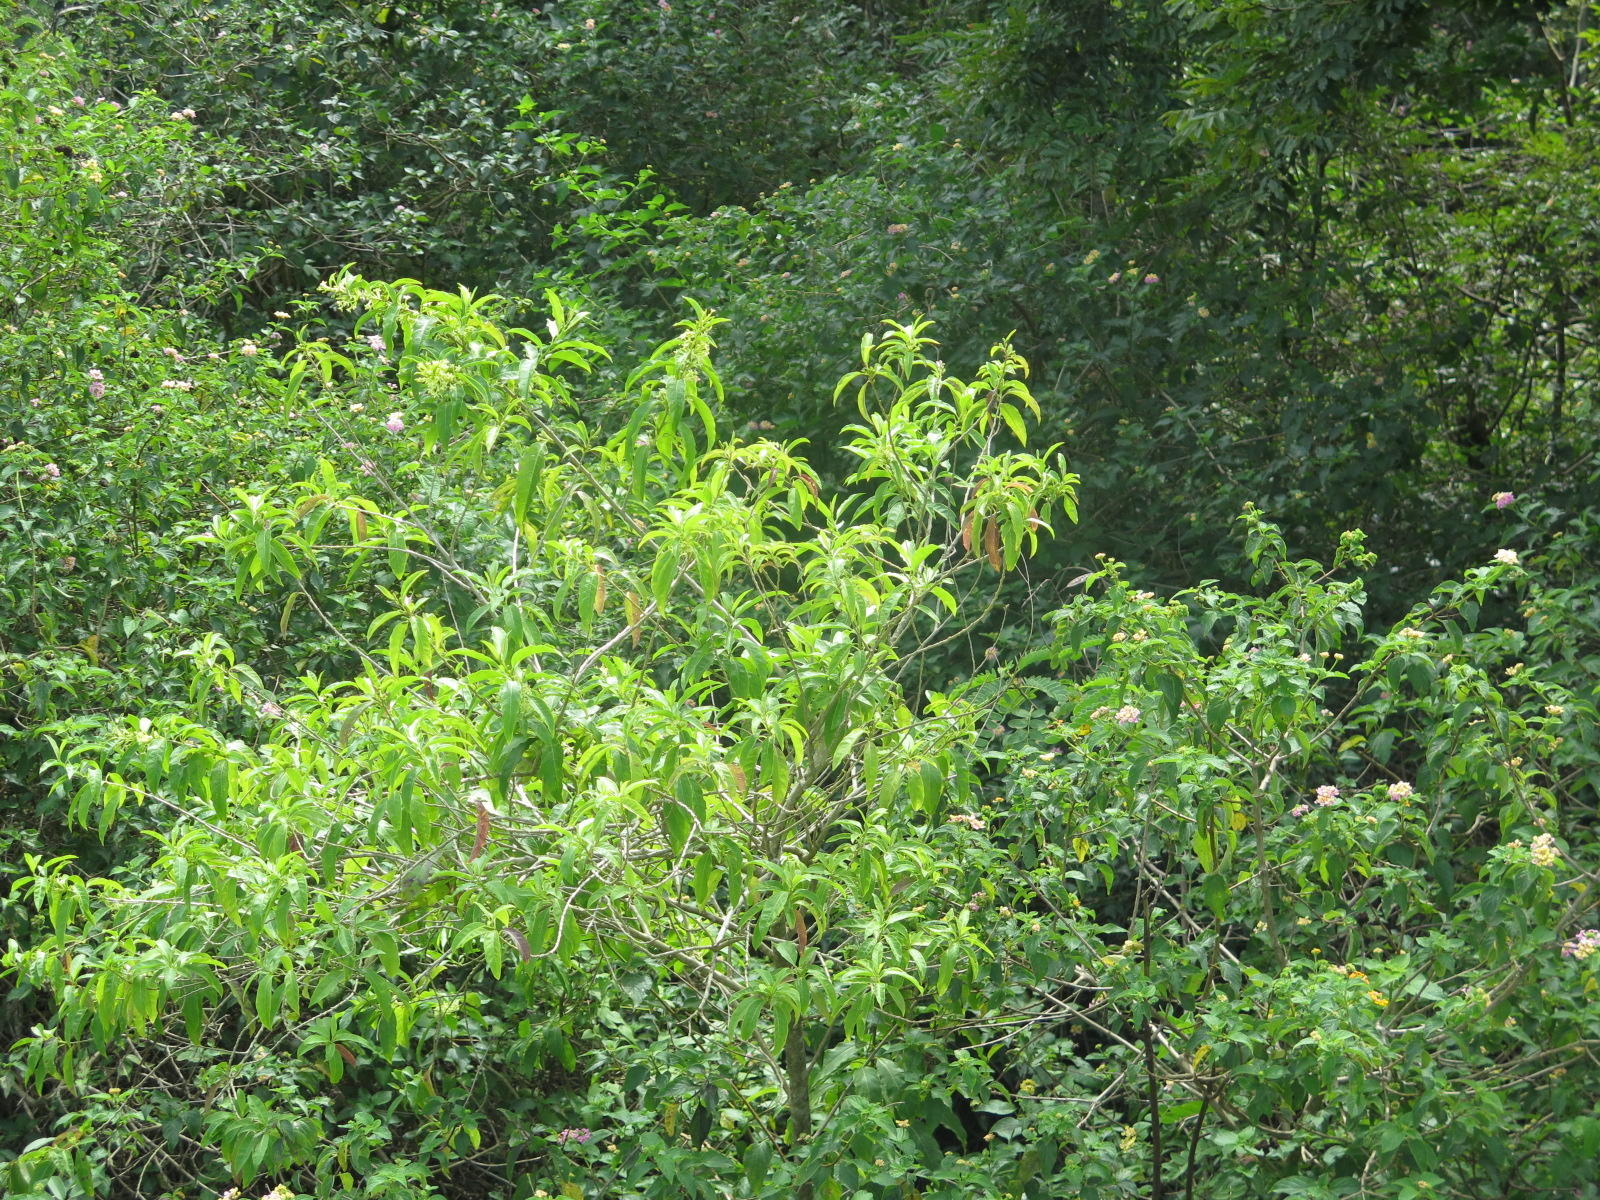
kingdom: Plantae
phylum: Tracheophyta
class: Magnoliopsida
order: Solanales
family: Solanaceae
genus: Cestrum
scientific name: Cestrum laevigatum
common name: Inkberry
